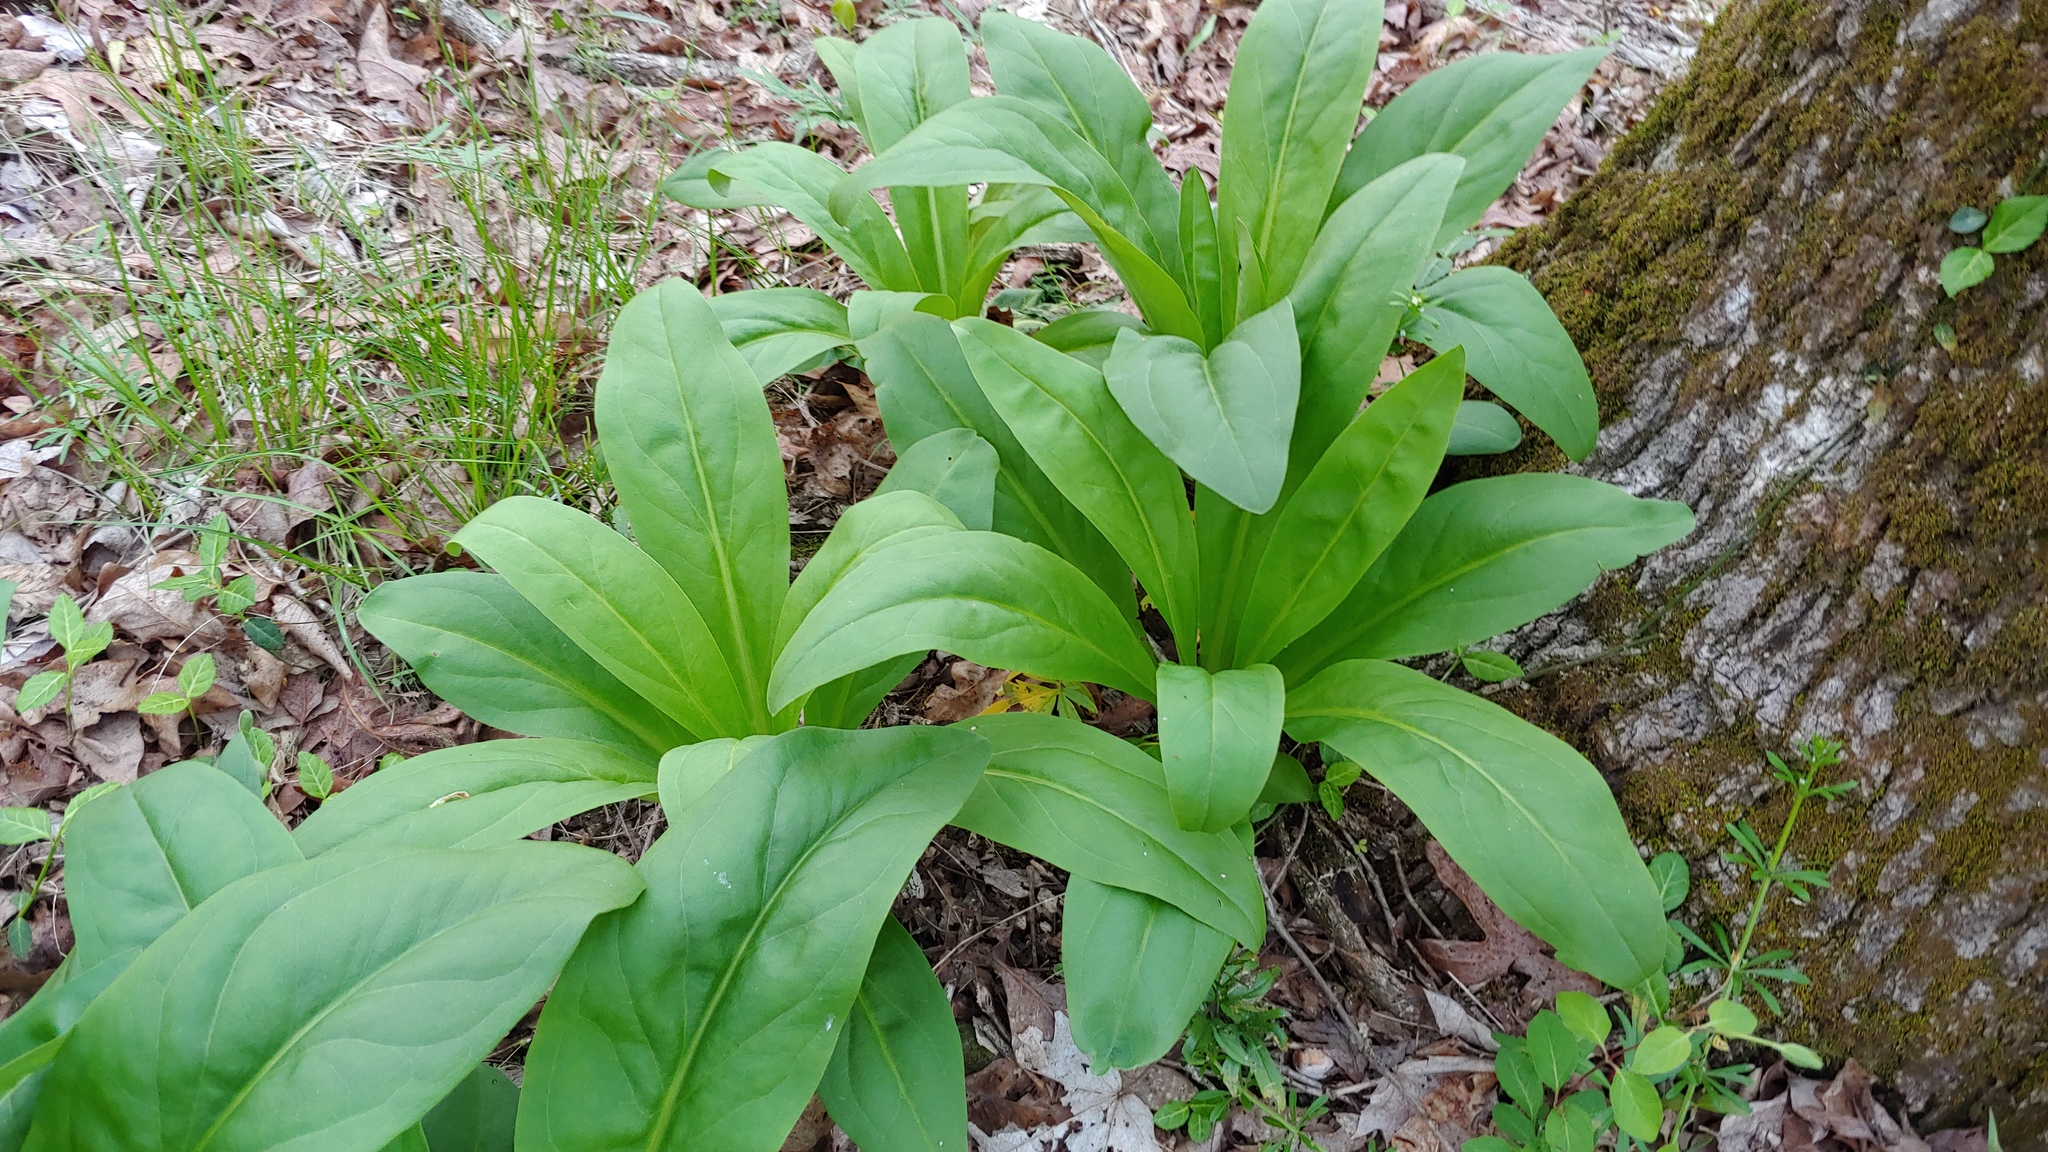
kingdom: Plantae
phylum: Tracheophyta
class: Magnoliopsida
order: Gentianales
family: Gentianaceae
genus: Frasera
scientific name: Frasera caroliniensis
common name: American columbo
